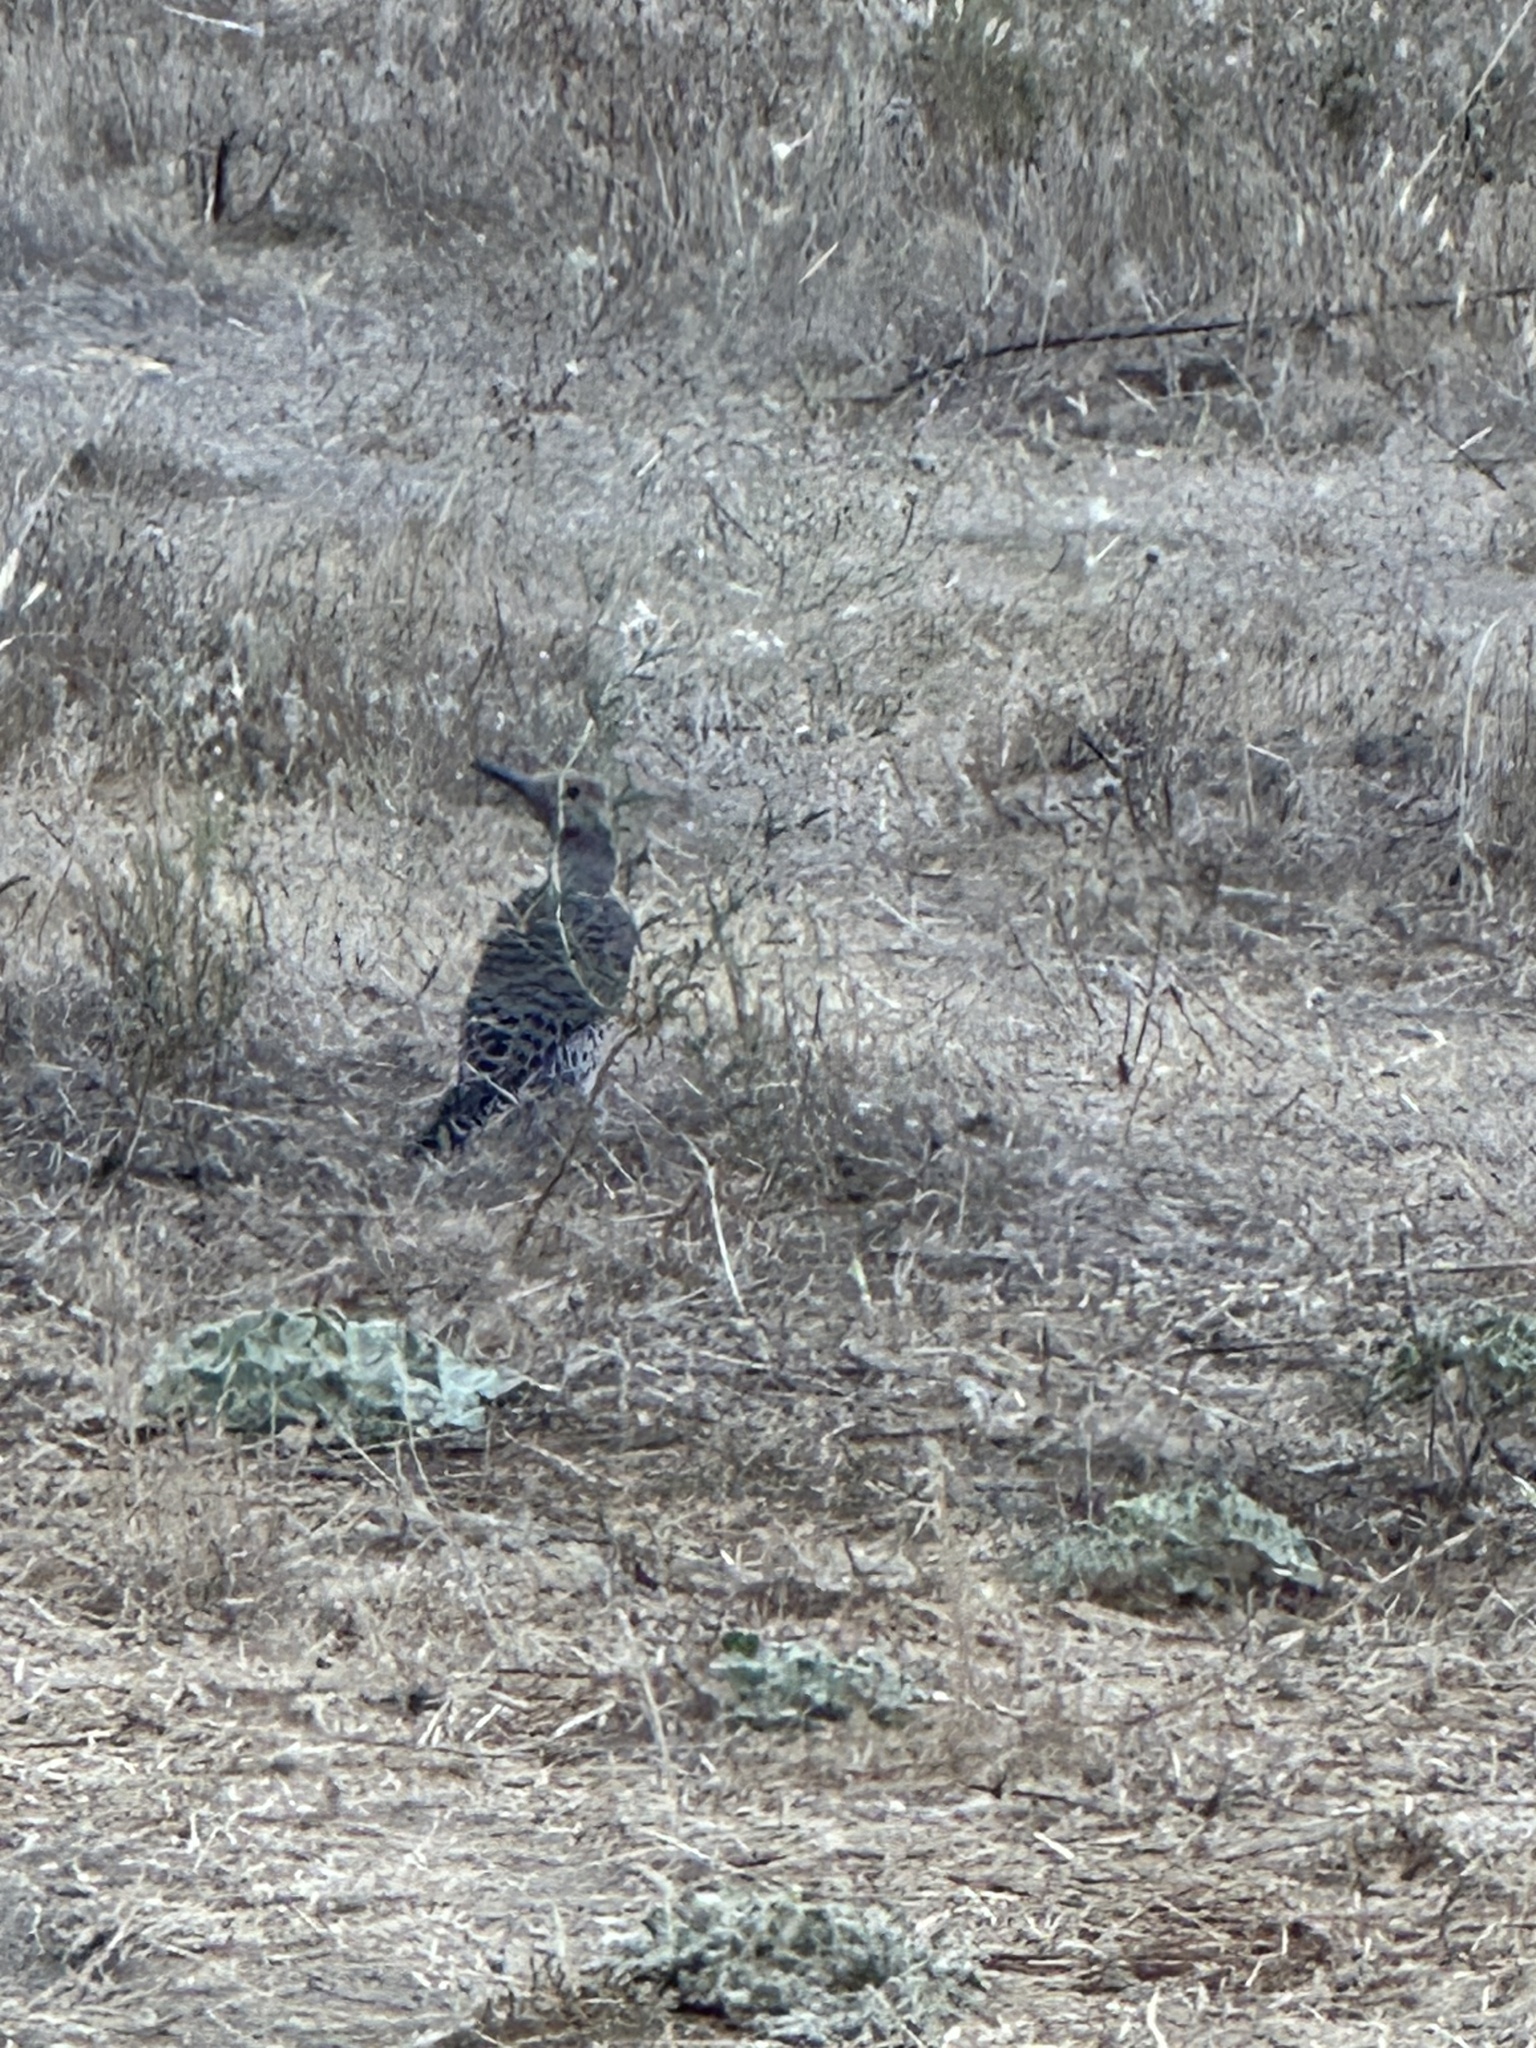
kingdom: Animalia
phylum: Chordata
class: Aves
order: Piciformes
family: Picidae
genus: Colaptes
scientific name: Colaptes auratus
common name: Northern flicker
